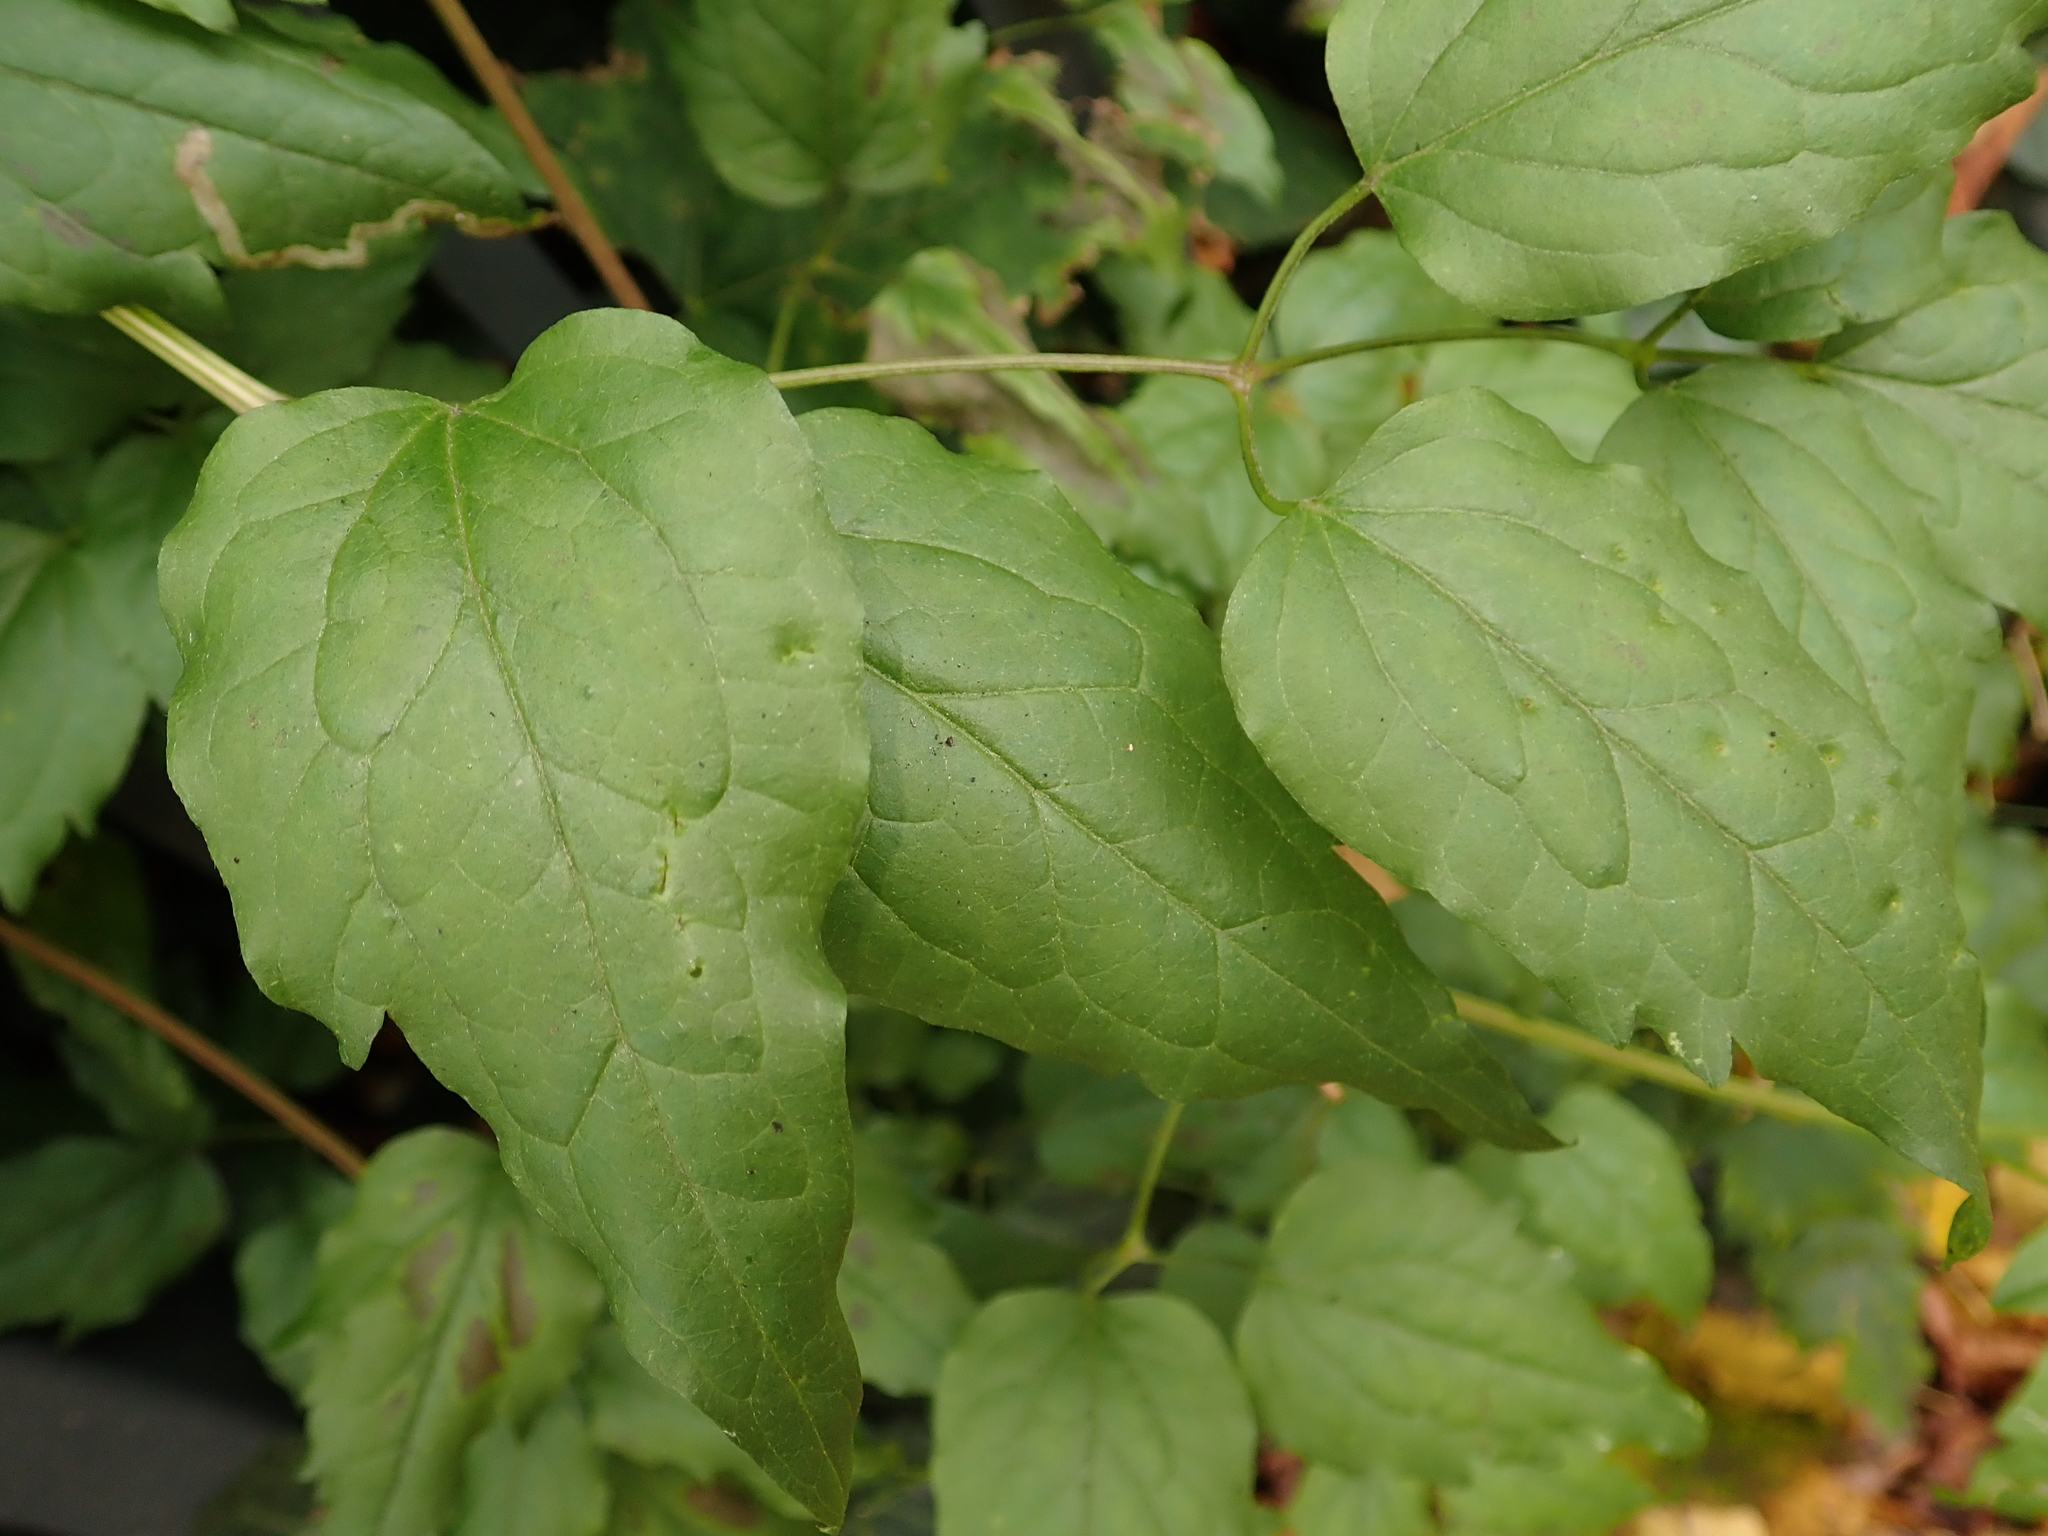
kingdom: Plantae
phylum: Tracheophyta
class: Magnoliopsida
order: Ranunculales
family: Ranunculaceae
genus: Clematis
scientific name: Clematis vitalba
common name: Evergreen clematis
